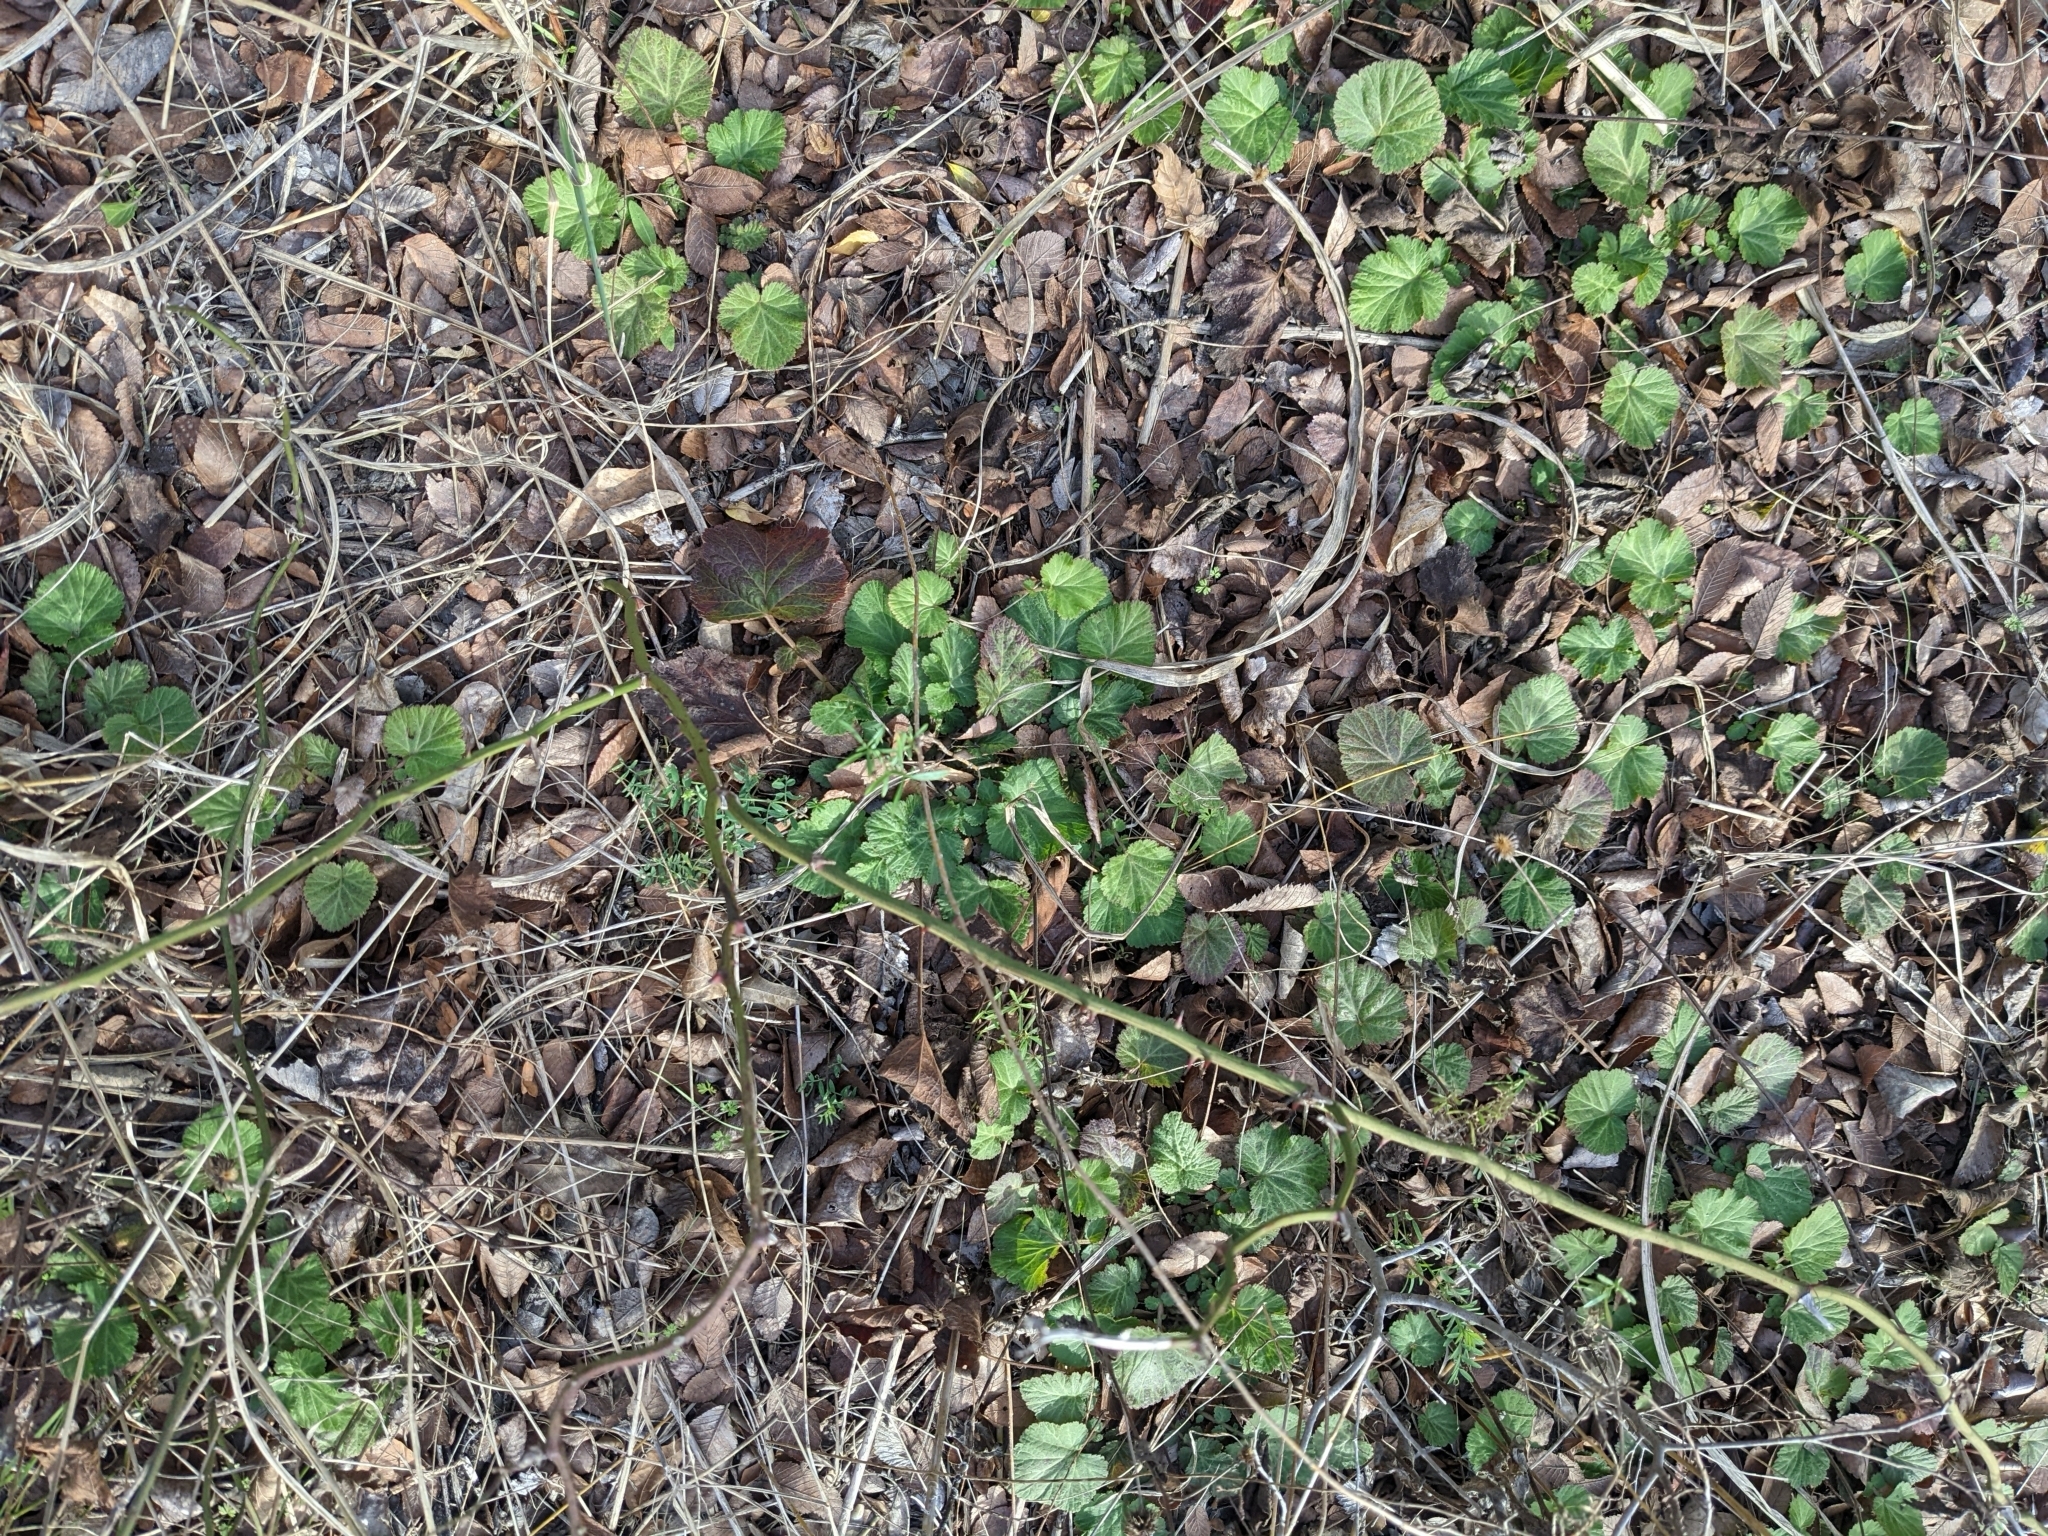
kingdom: Plantae
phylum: Tracheophyta
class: Magnoliopsida
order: Rosales
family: Rosaceae
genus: Geum
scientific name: Geum canadense
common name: White avens
